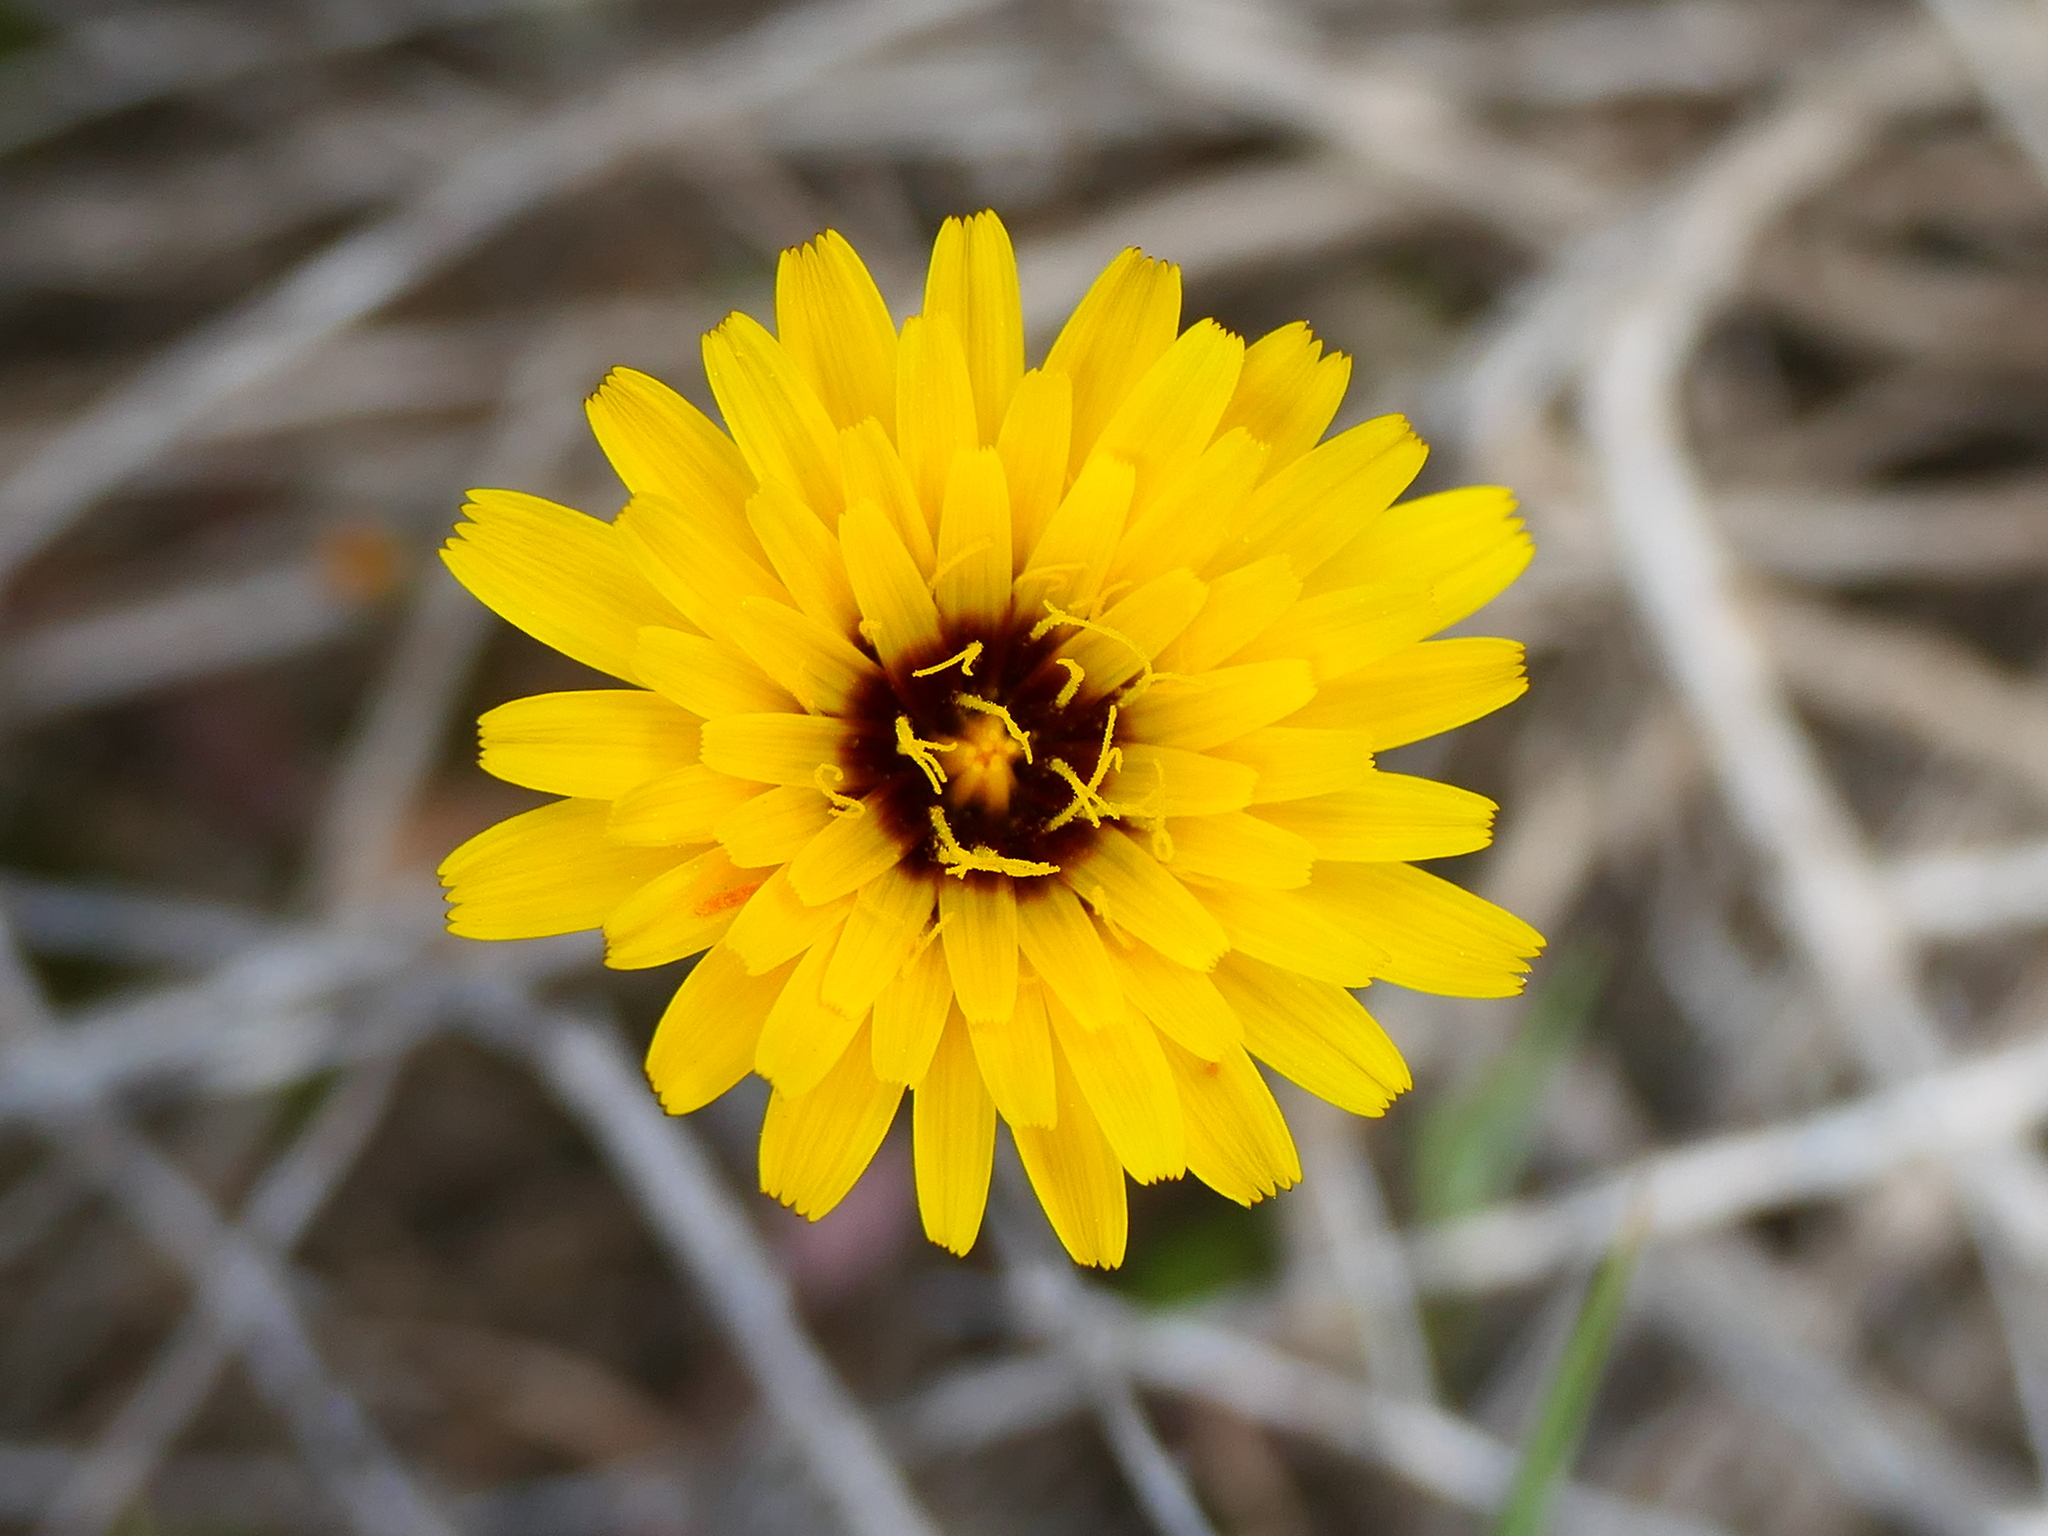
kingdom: Plantae
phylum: Tracheophyta
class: Magnoliopsida
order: Asterales
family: Asteraceae
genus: Reichardia
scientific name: Reichardia tingitana
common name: Reichardia
